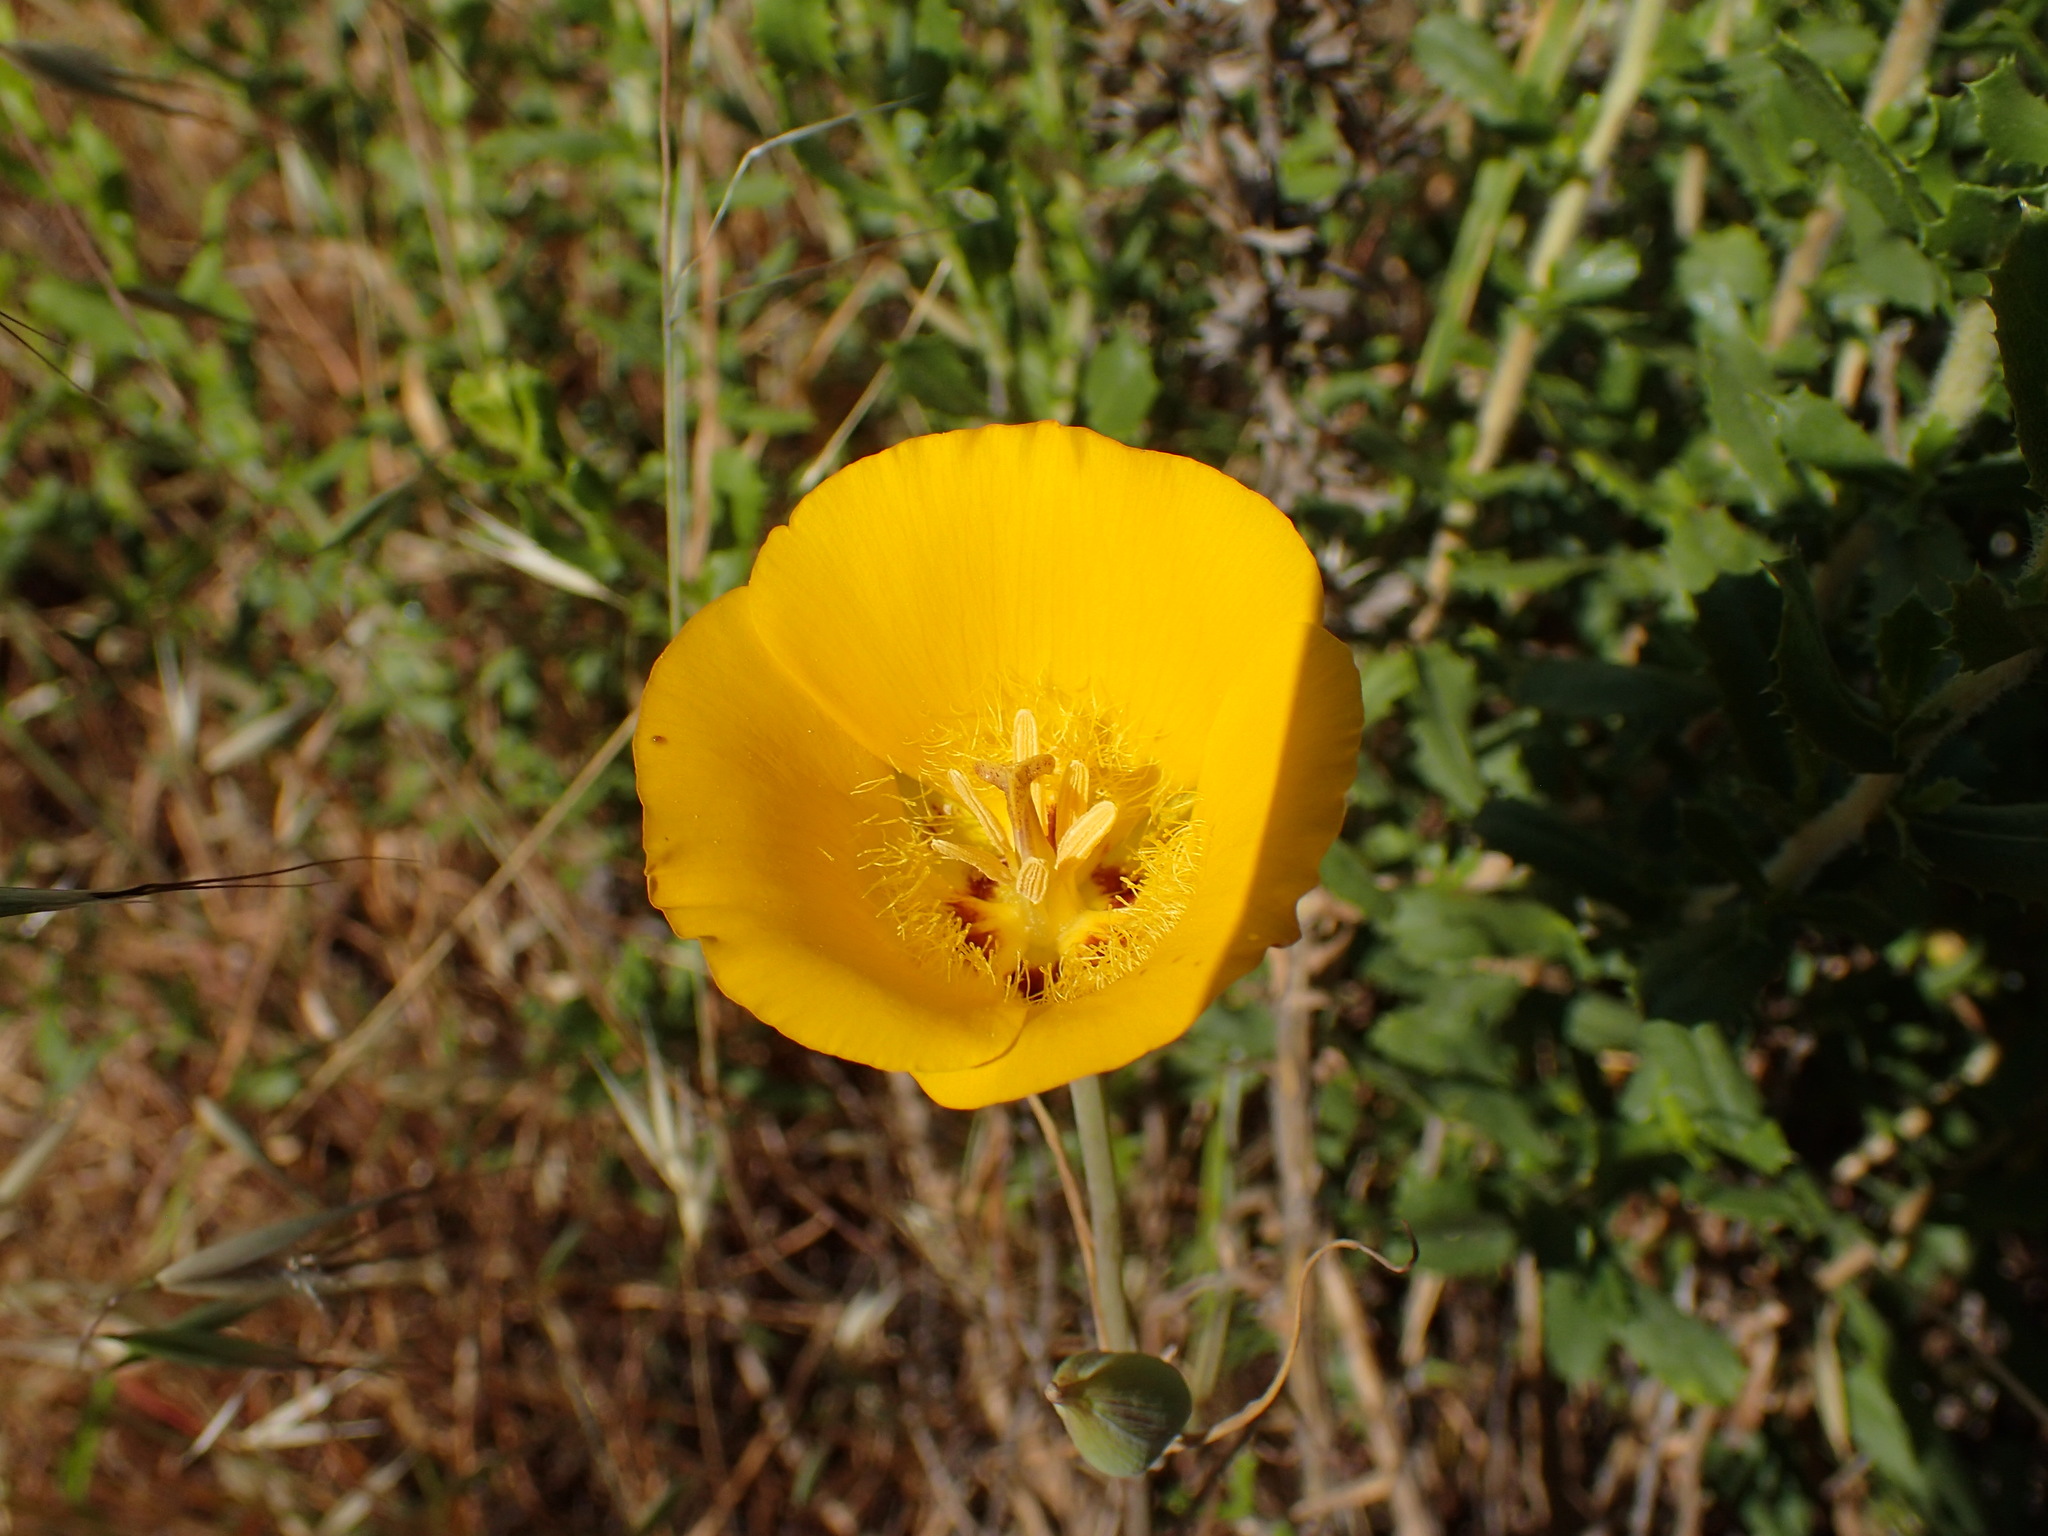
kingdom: Plantae
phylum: Tracheophyta
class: Liliopsida
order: Liliales
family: Liliaceae
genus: Calochortus
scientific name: Calochortus clavatus
